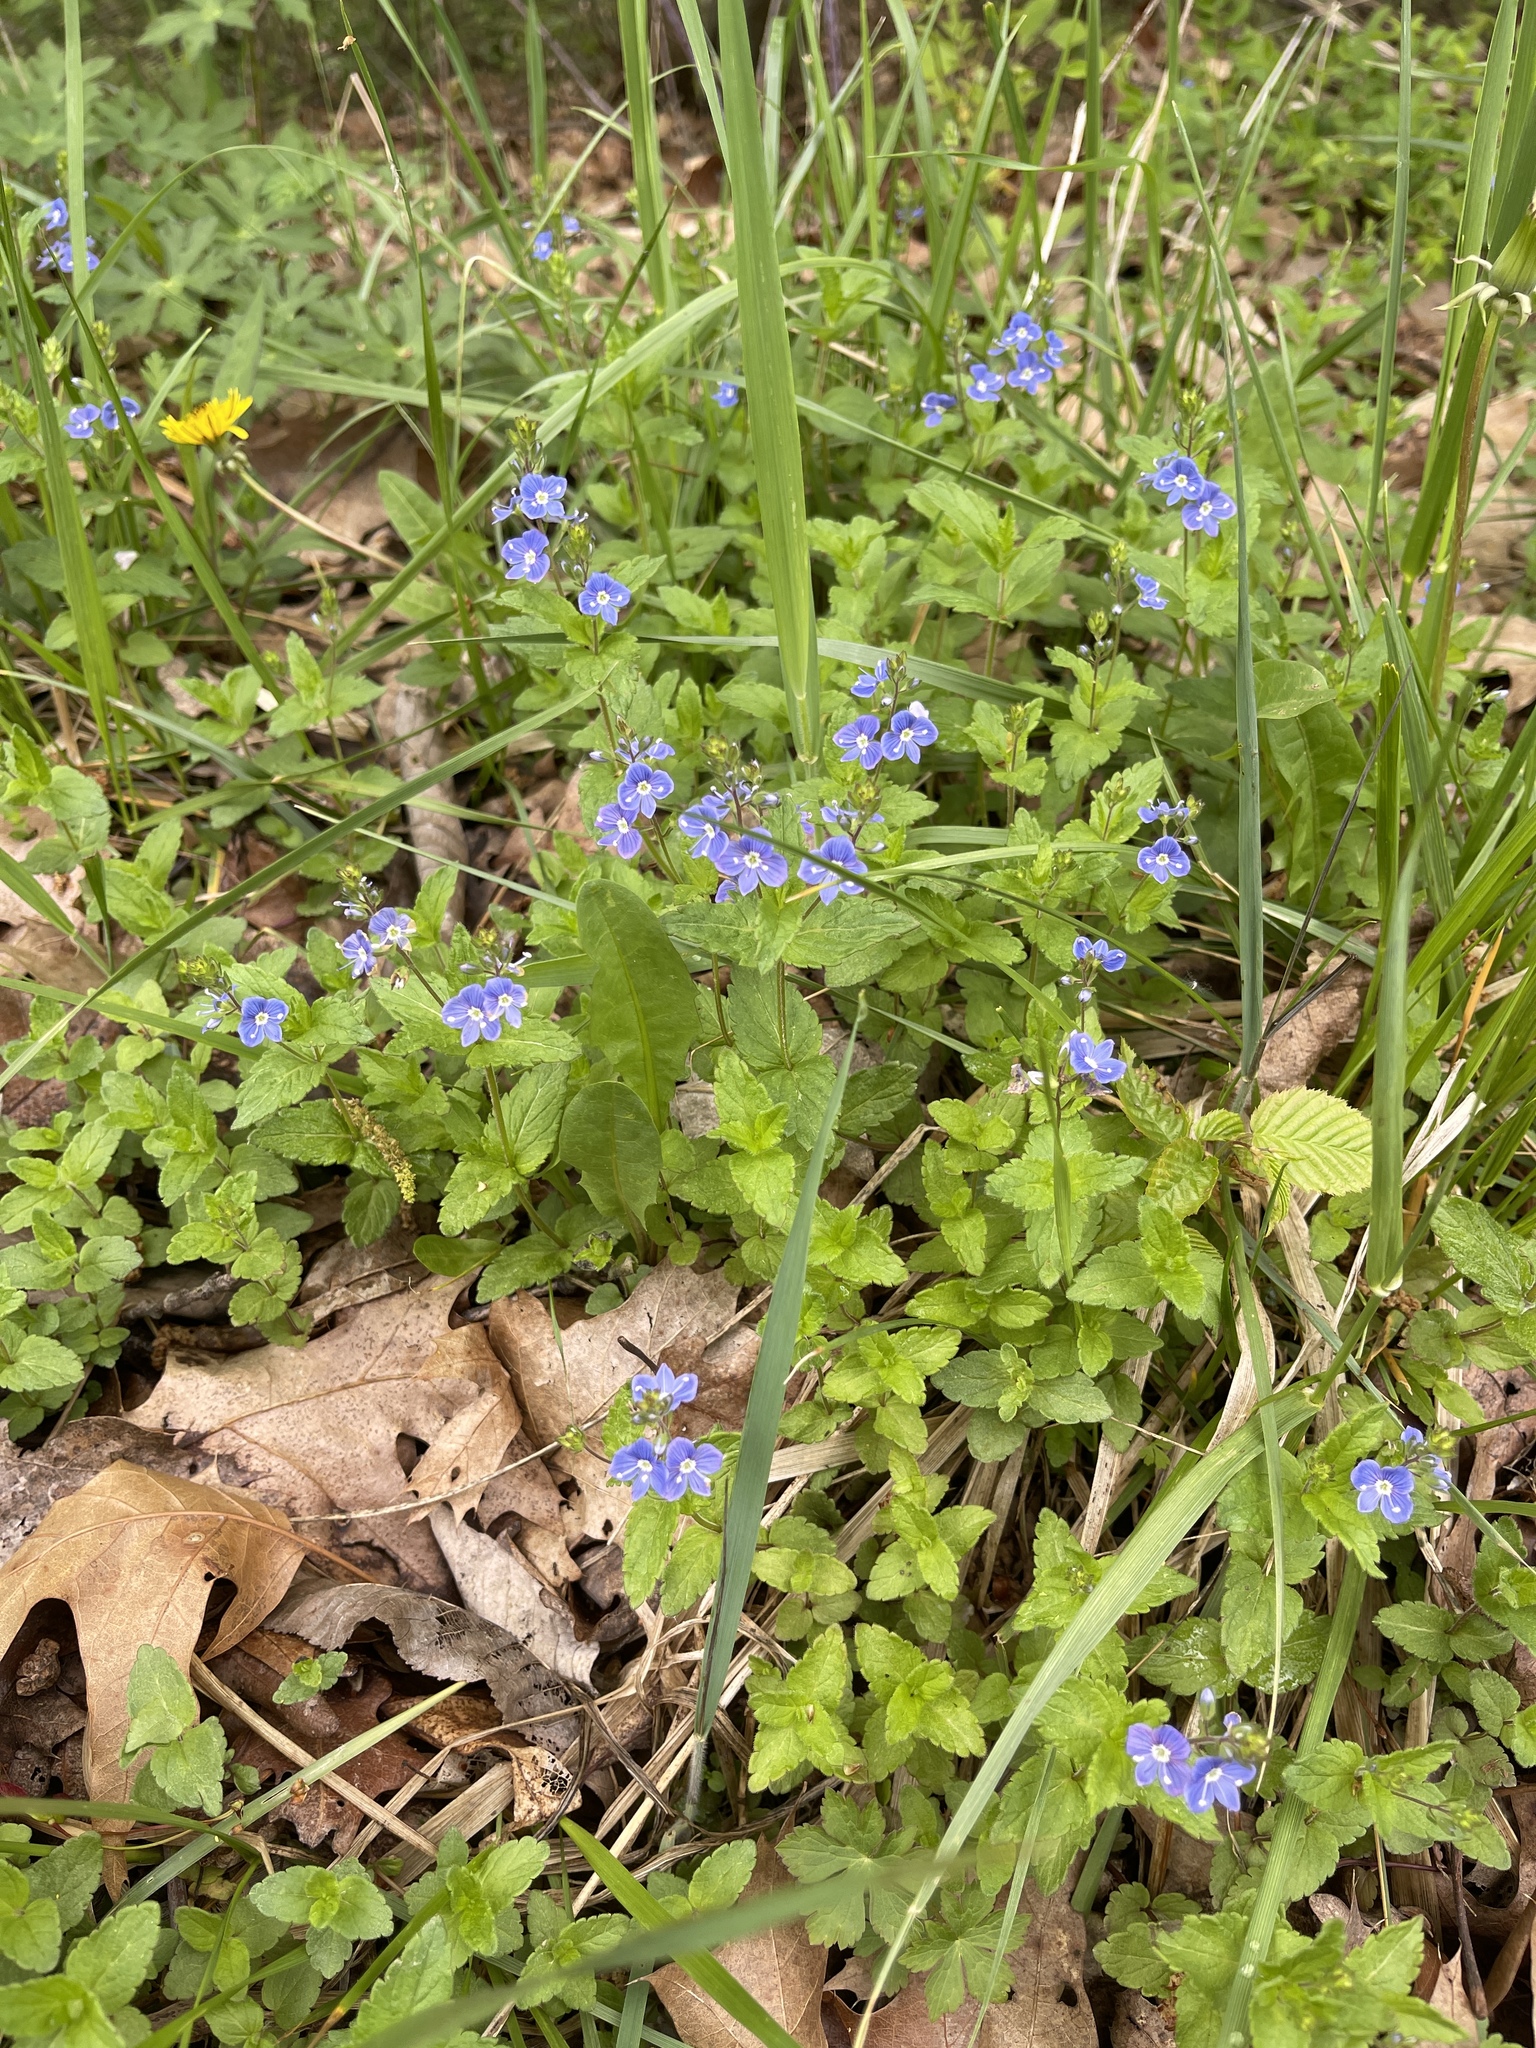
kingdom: Plantae
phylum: Tracheophyta
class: Magnoliopsida
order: Lamiales
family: Plantaginaceae
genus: Veronica
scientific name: Veronica chamaedrys
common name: Germander speedwell
